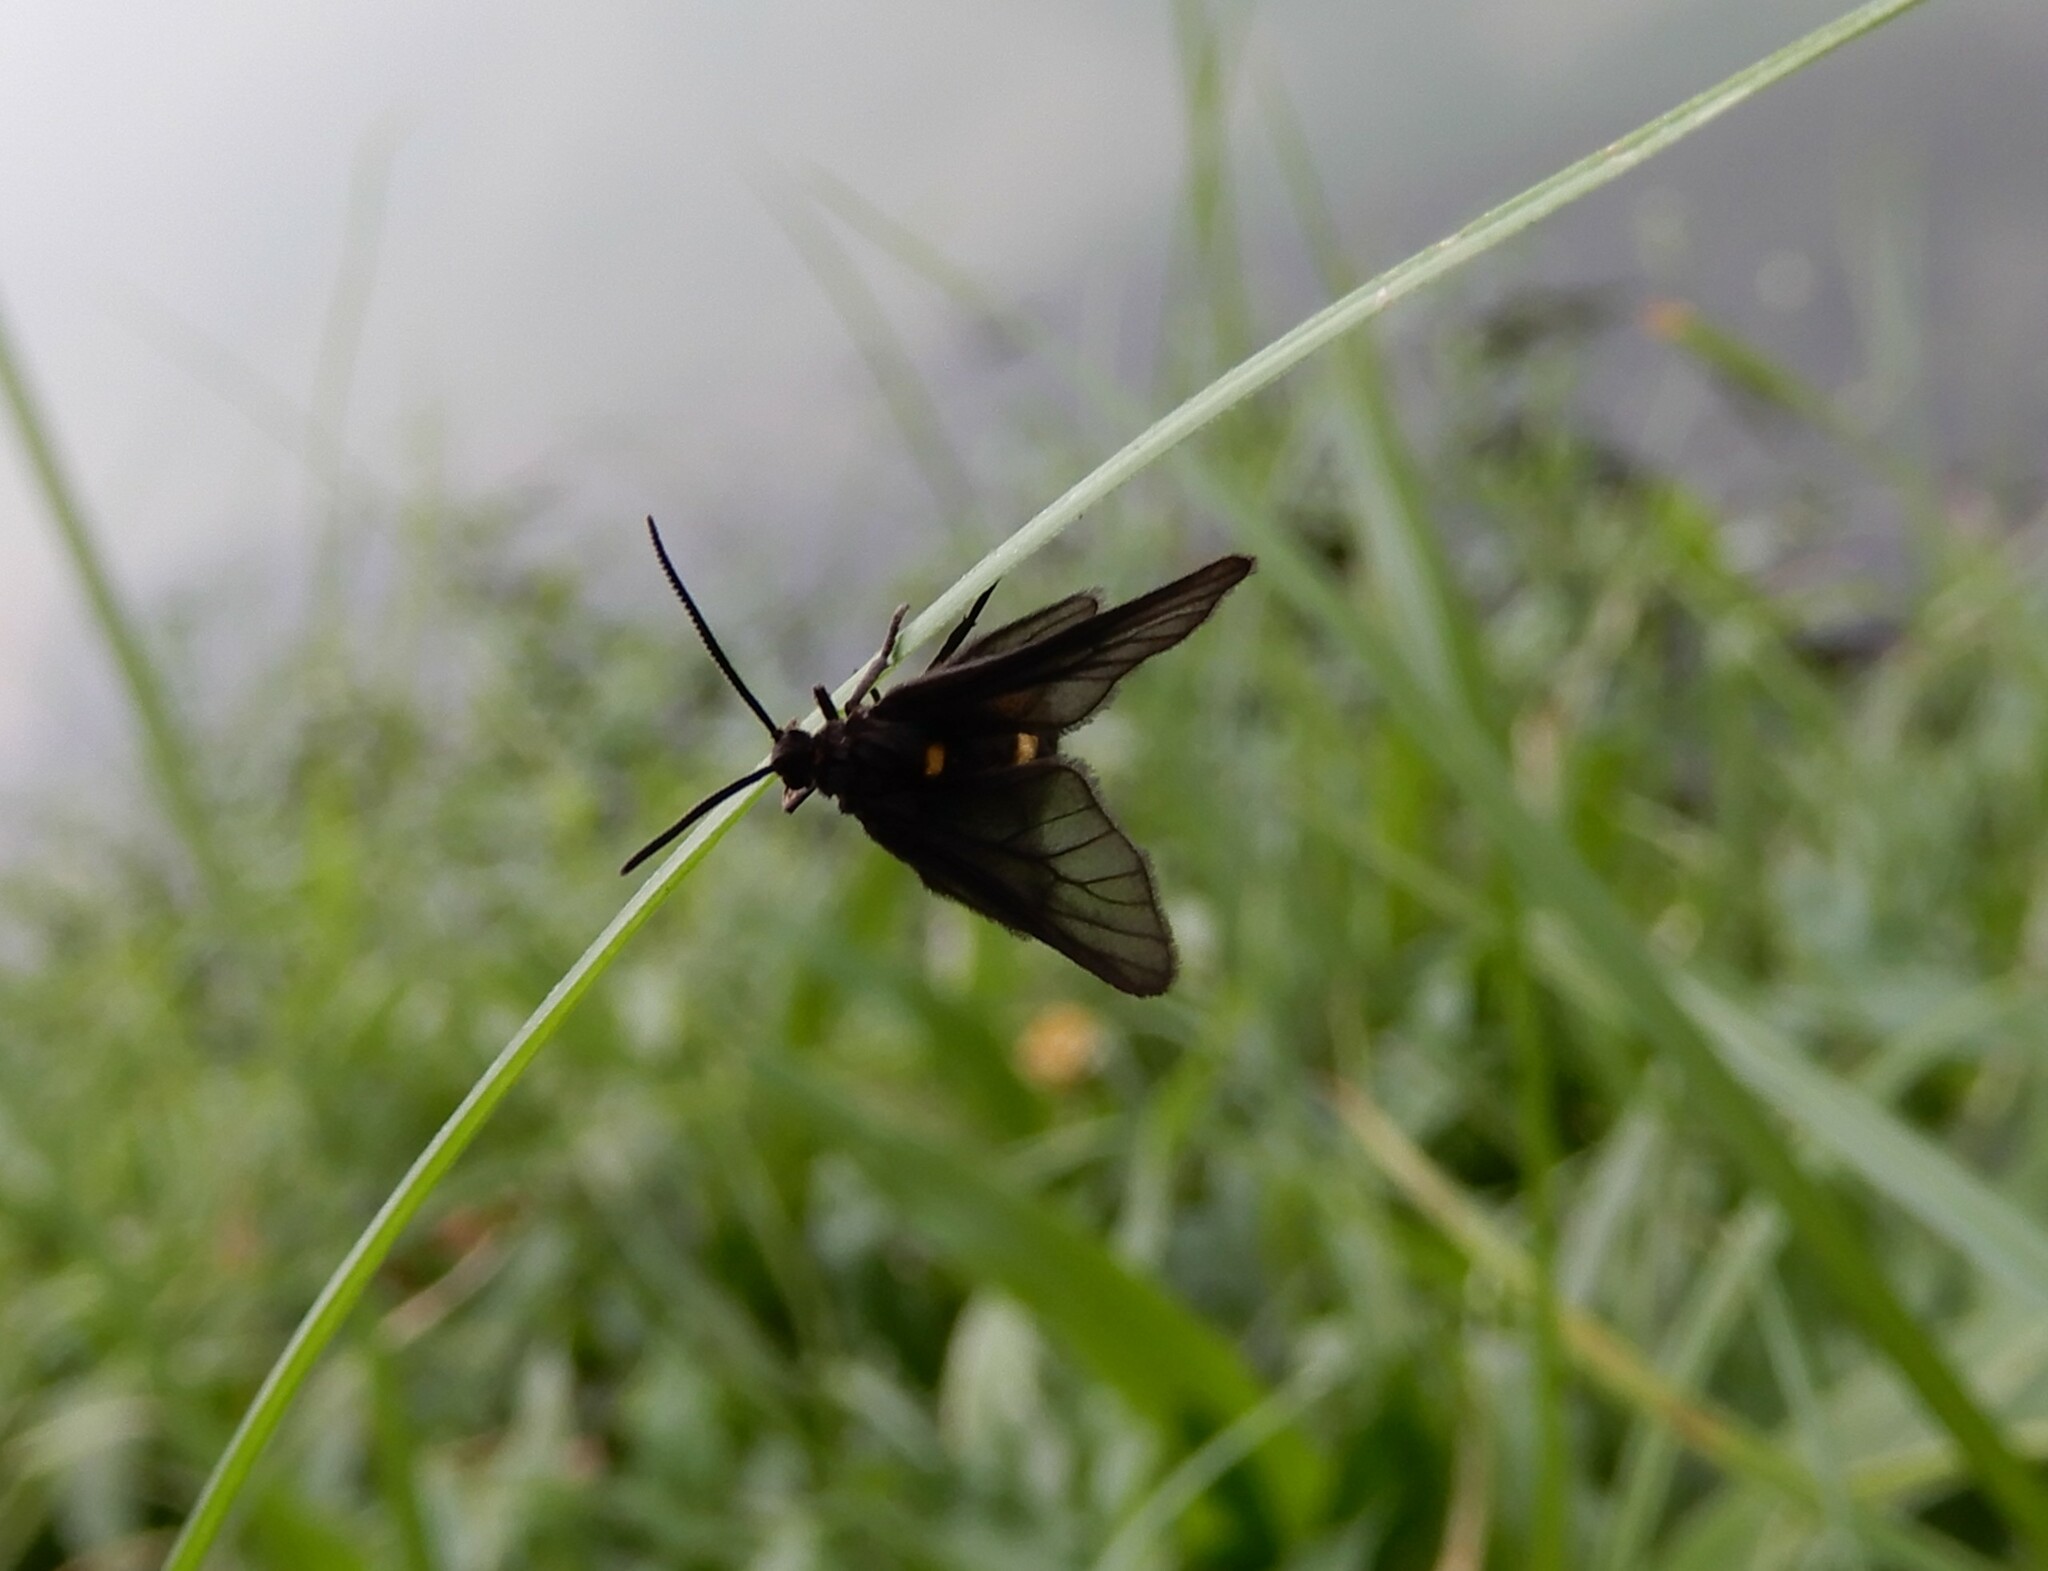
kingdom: Animalia
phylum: Arthropoda
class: Insecta
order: Lepidoptera
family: Erebidae
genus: Psichotoe
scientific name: Psichotoe duvauceli
